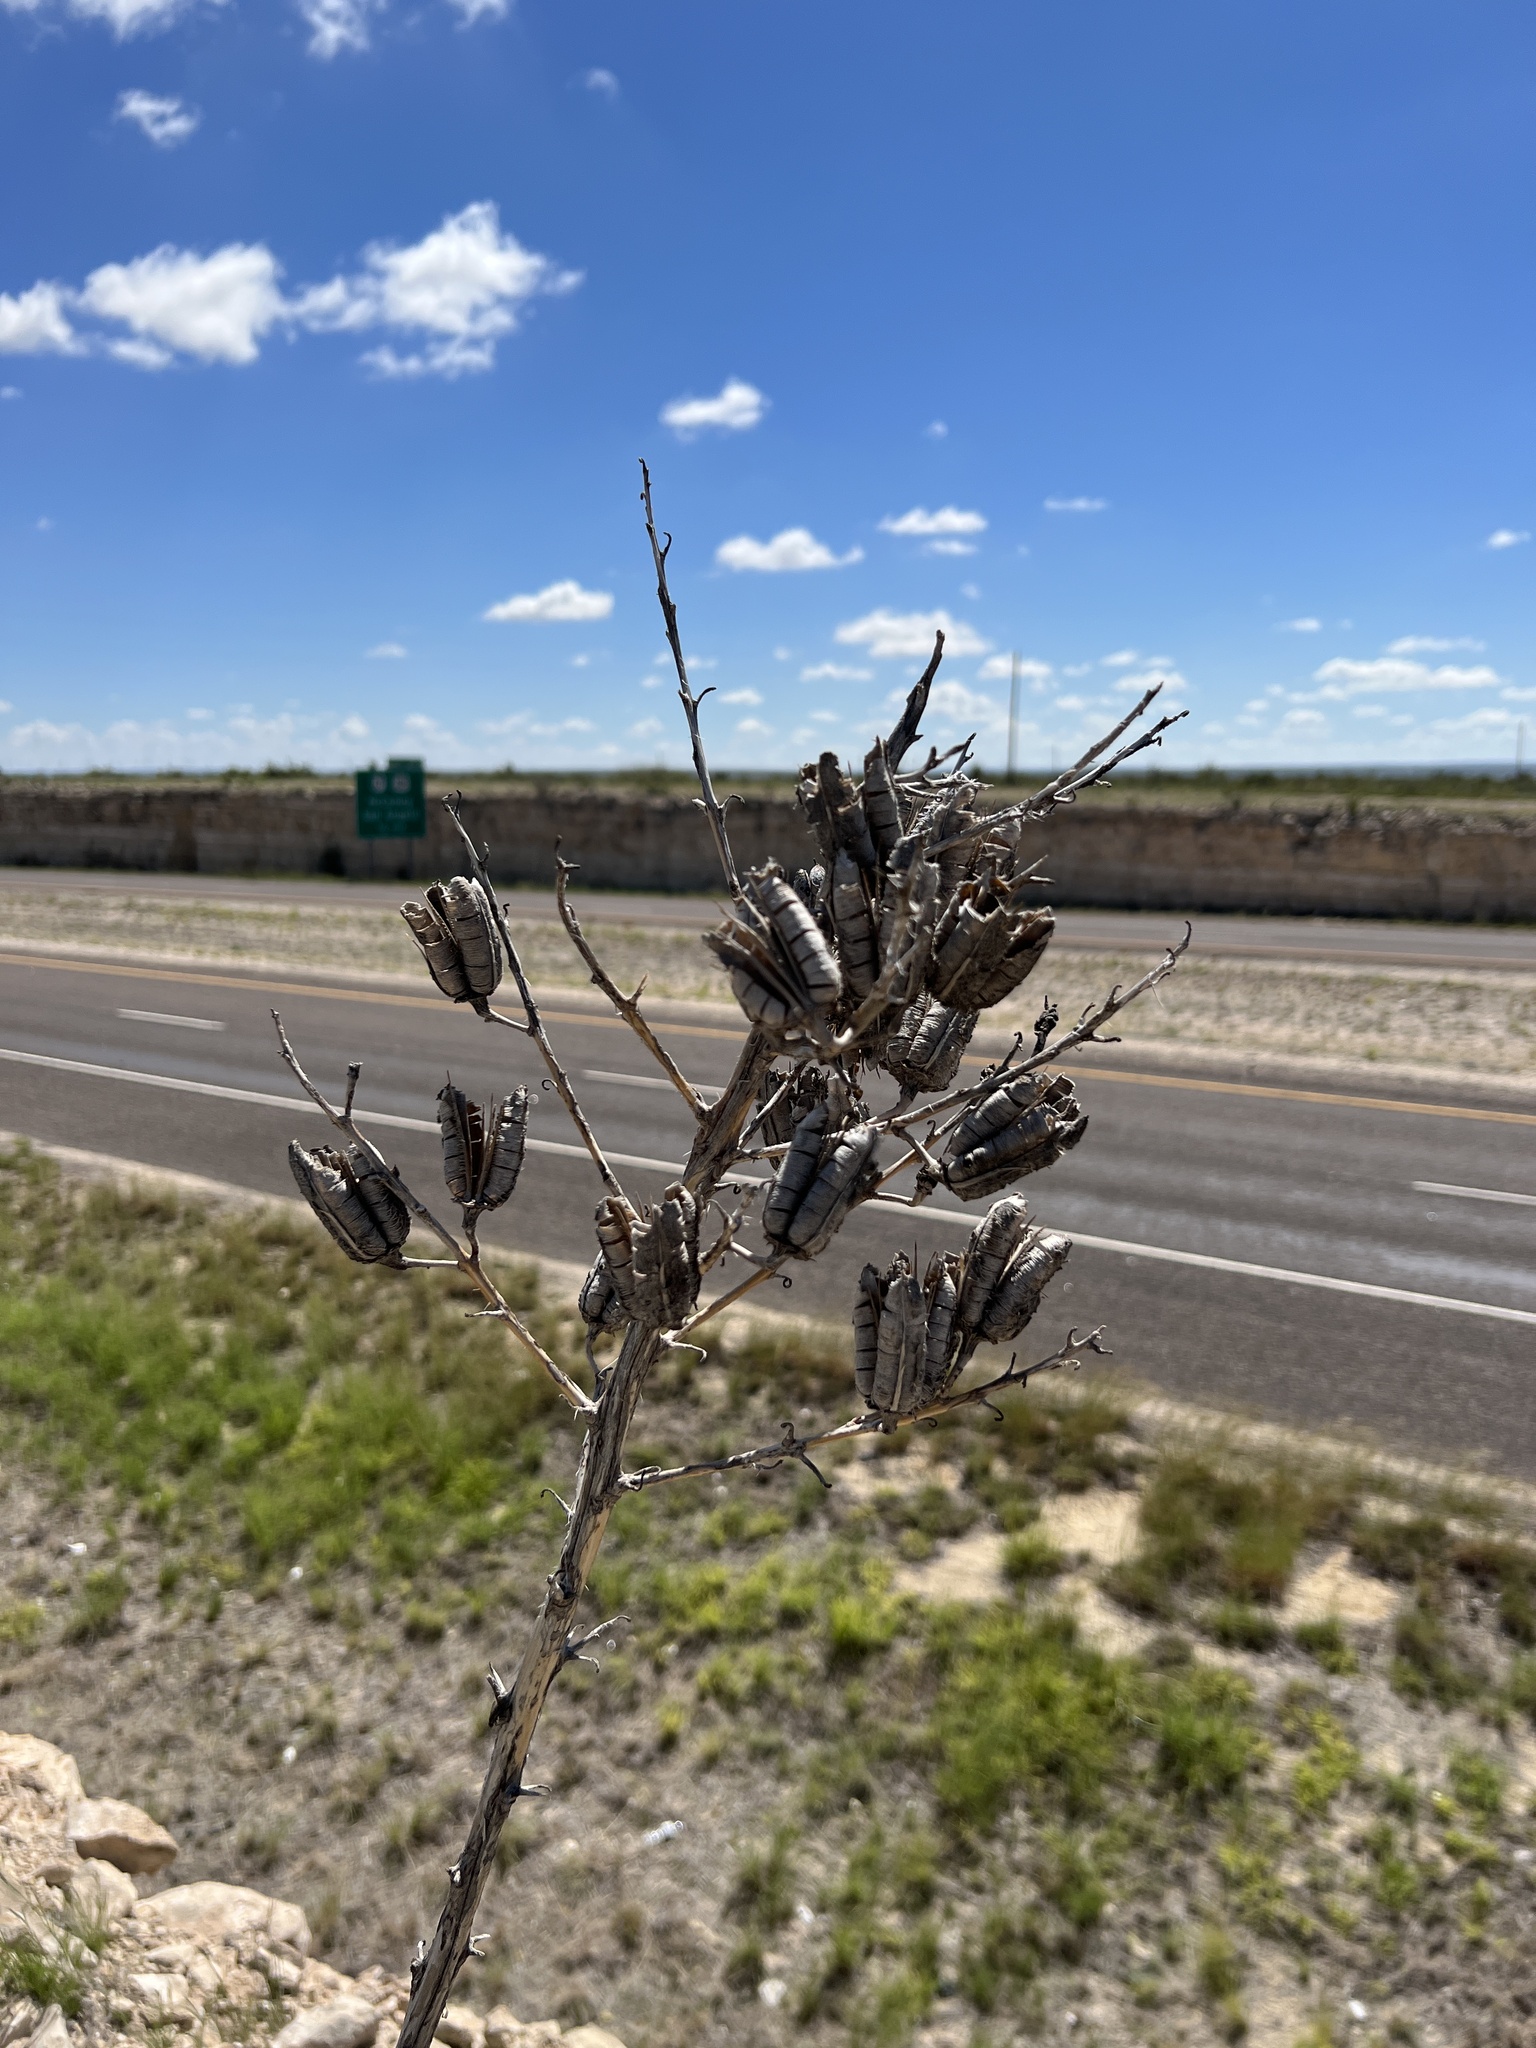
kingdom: Plantae
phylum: Tracheophyta
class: Liliopsida
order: Asparagales
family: Asparagaceae
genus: Yucca
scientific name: Yucca thompsoniana
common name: Trans-pecos yucca
